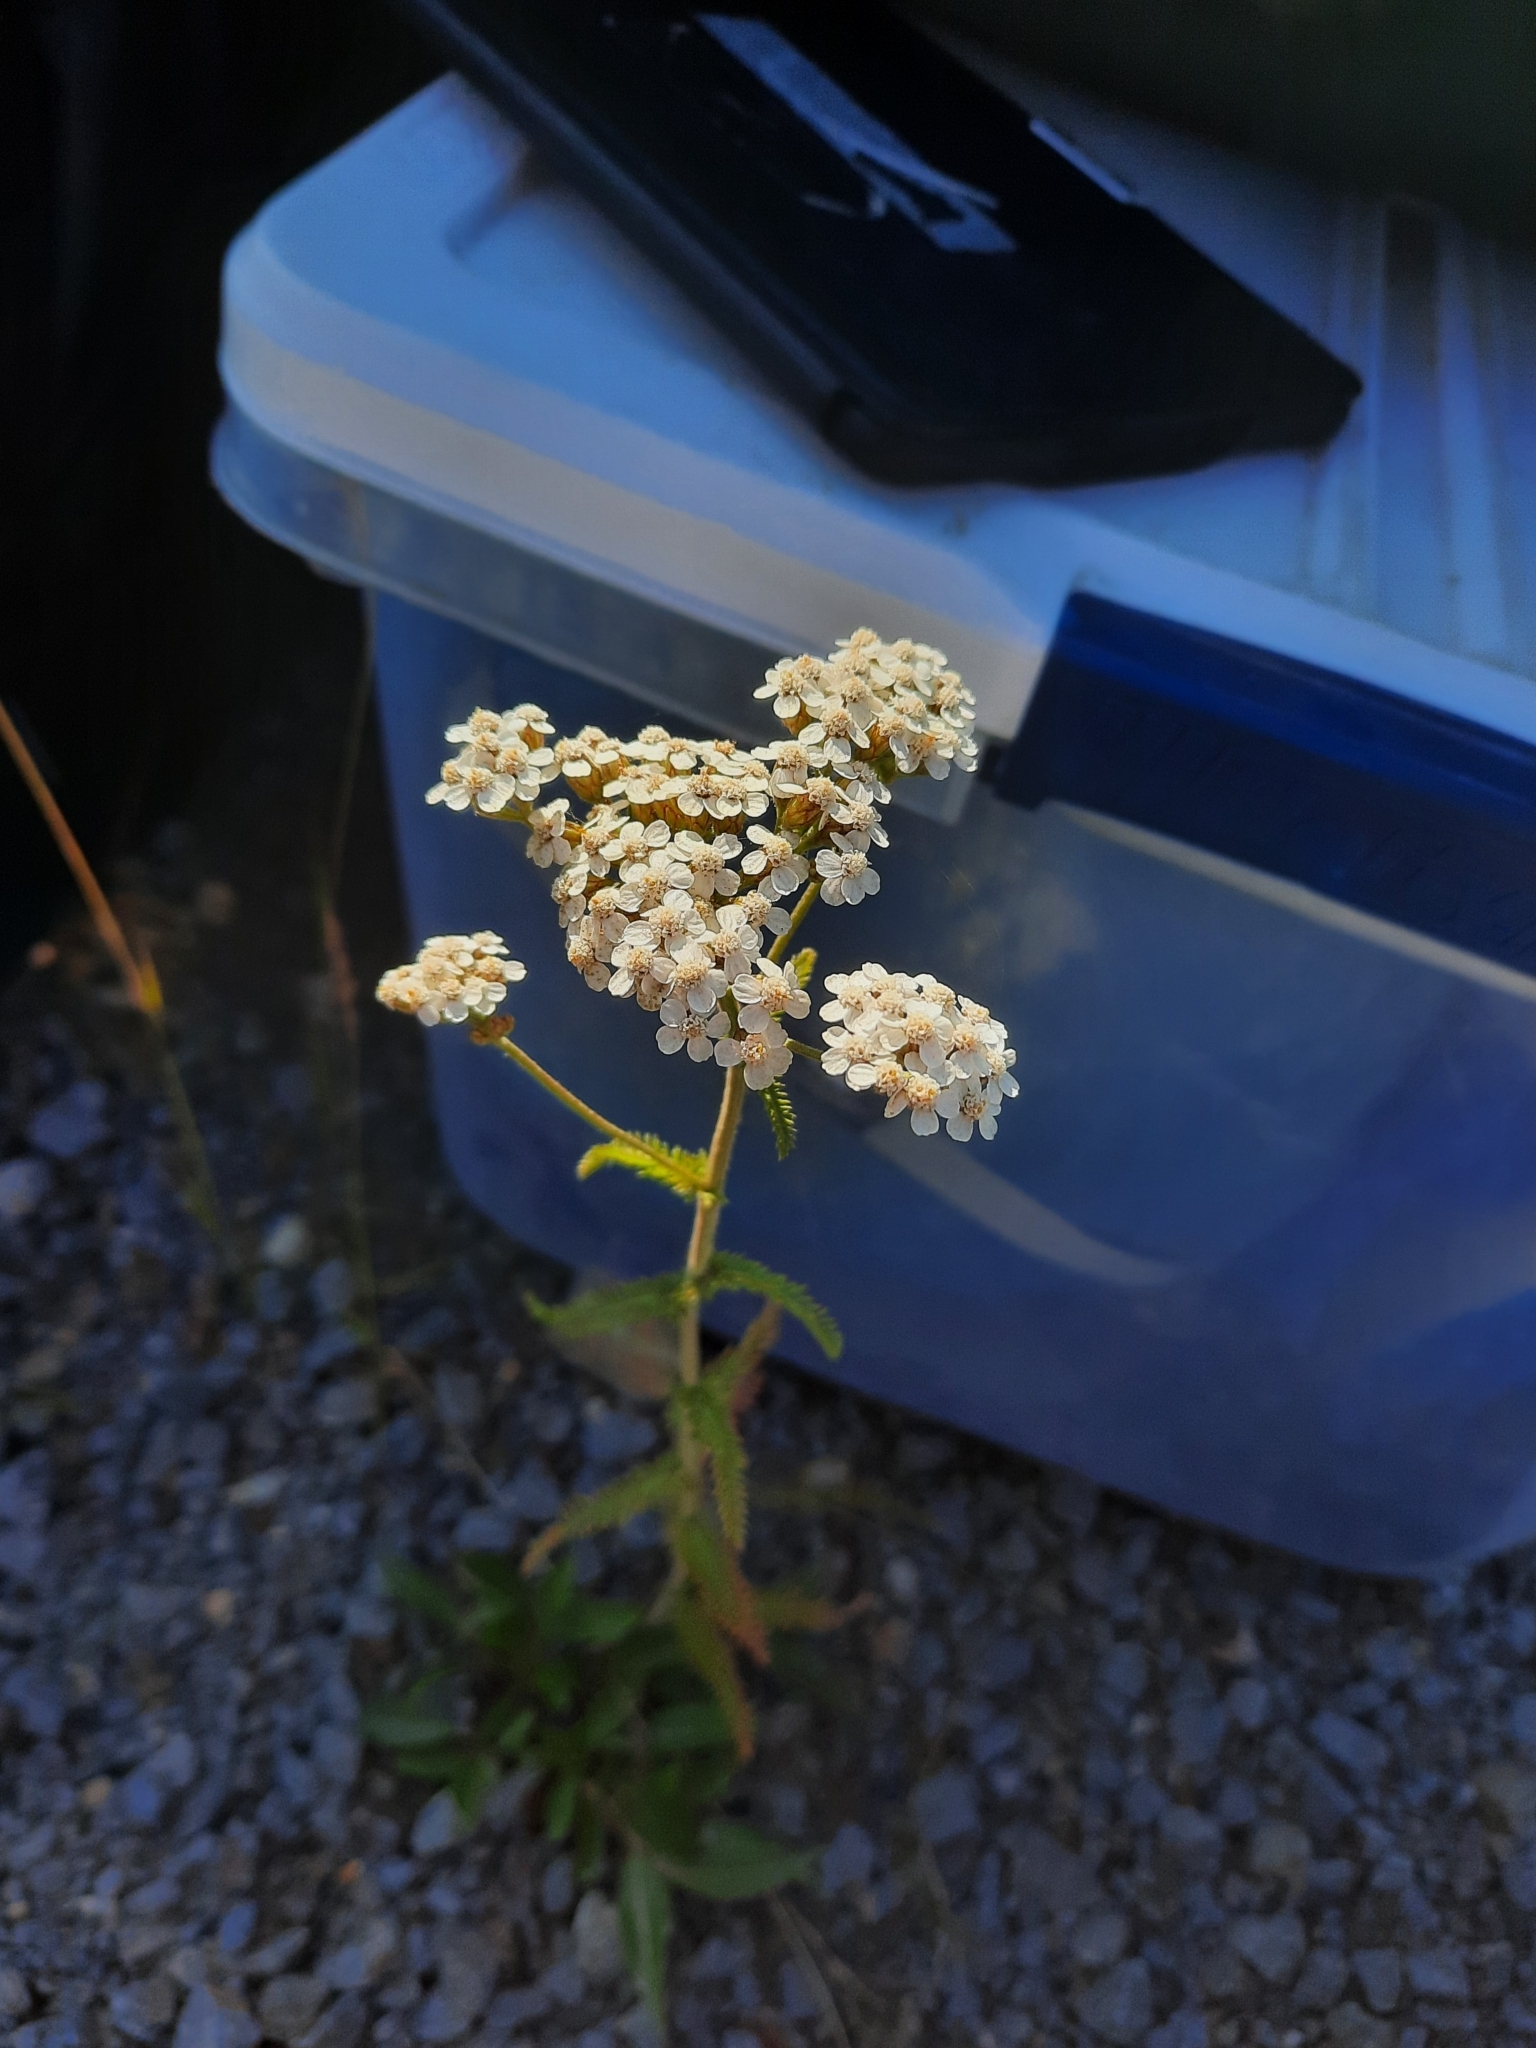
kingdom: Plantae
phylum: Tracheophyta
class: Magnoliopsida
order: Asterales
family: Asteraceae
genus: Achillea
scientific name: Achillea millefolium
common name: Yarrow
